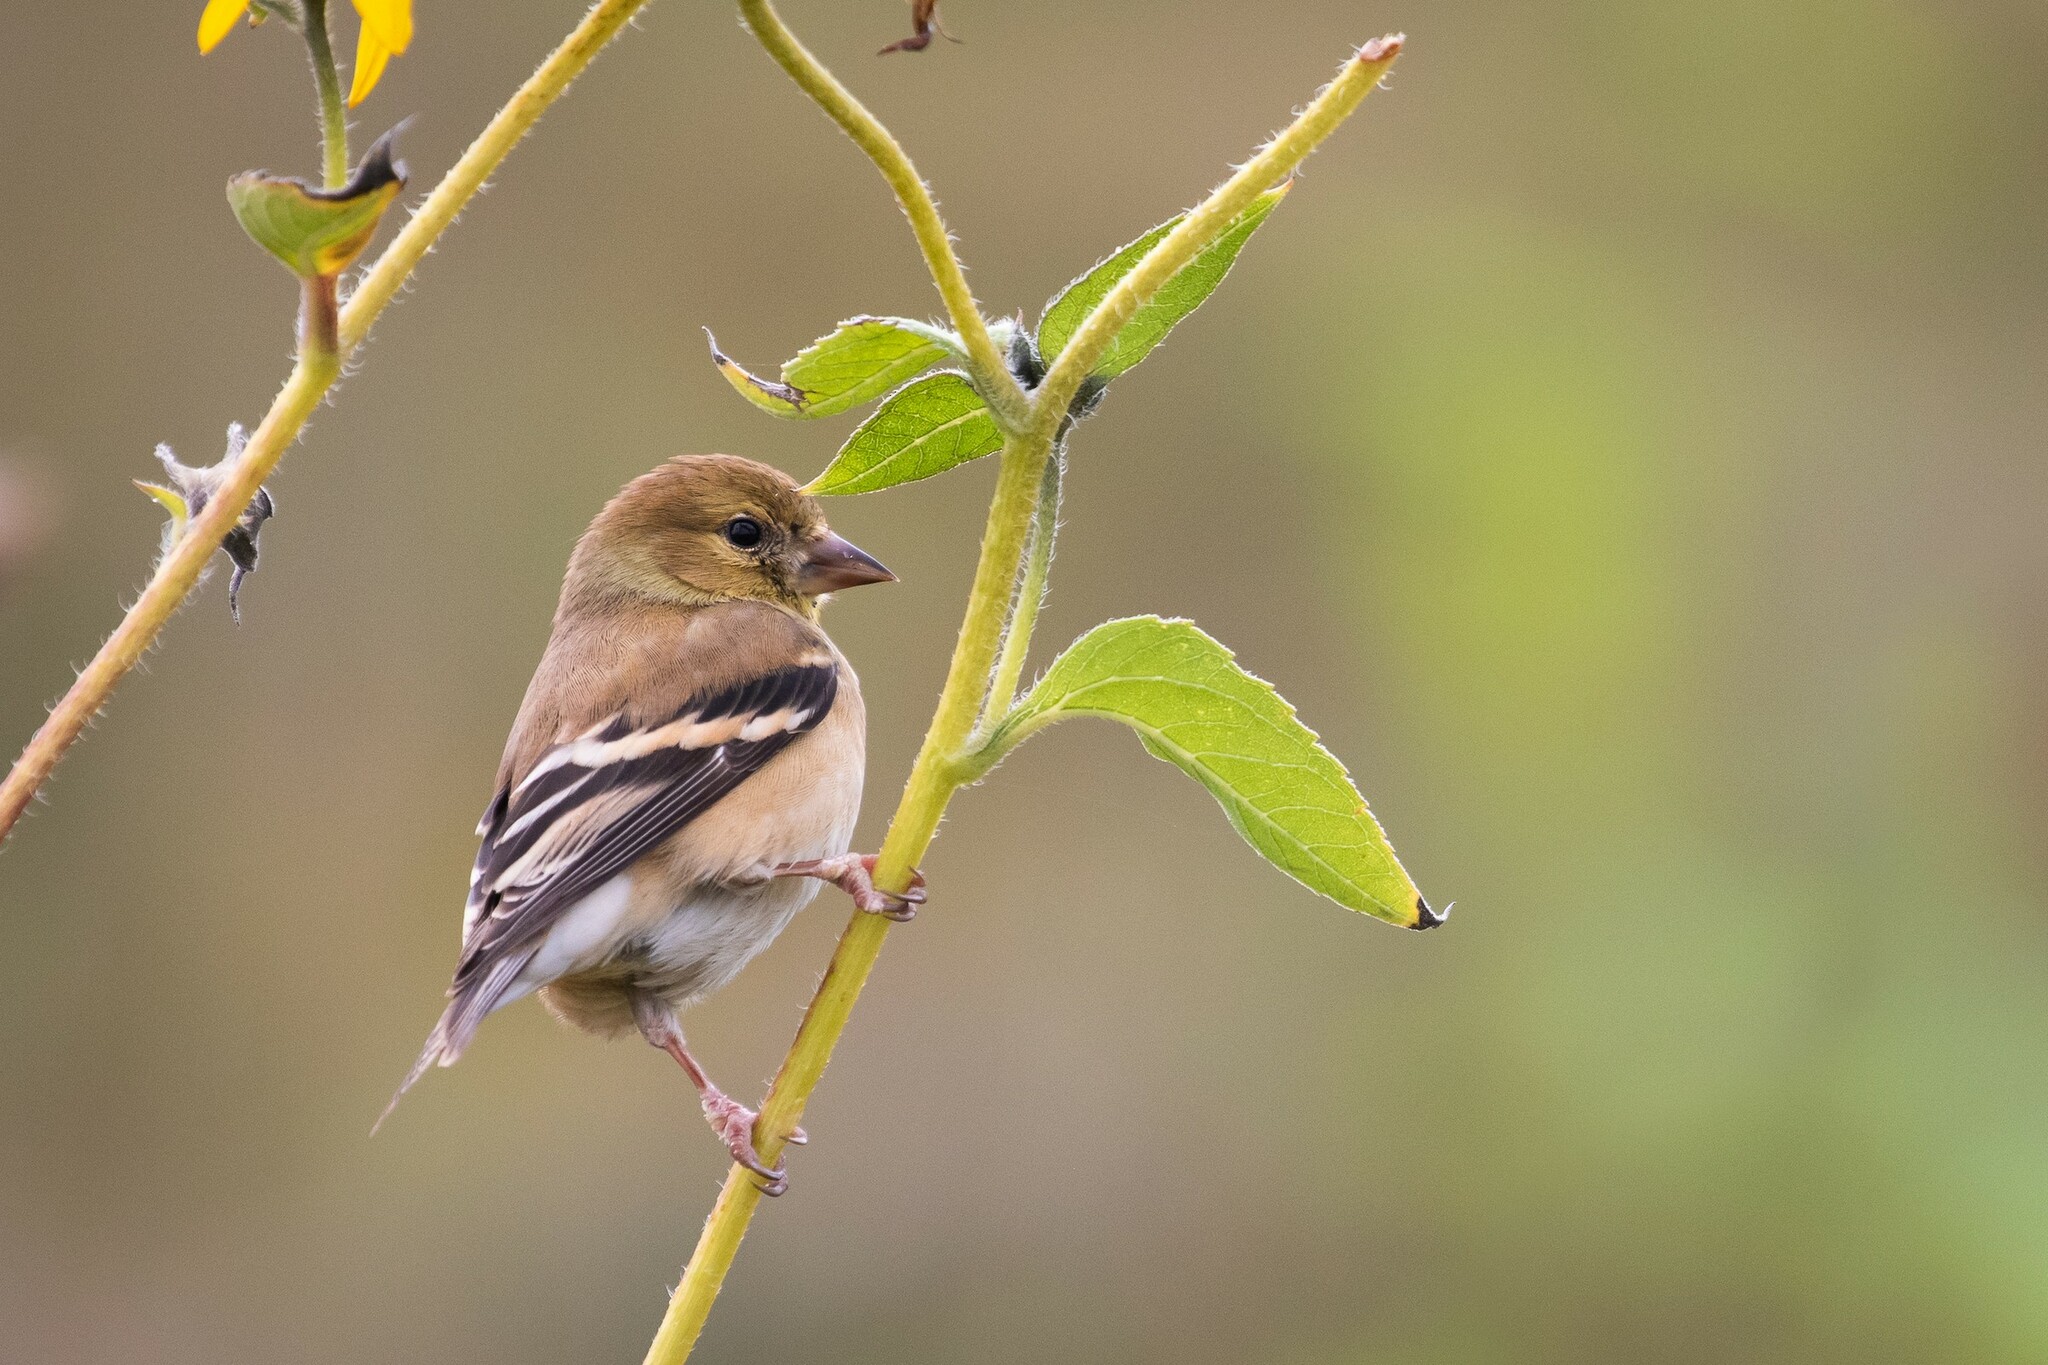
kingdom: Animalia
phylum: Chordata
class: Aves
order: Passeriformes
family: Fringillidae
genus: Spinus
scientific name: Spinus tristis
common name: American goldfinch
